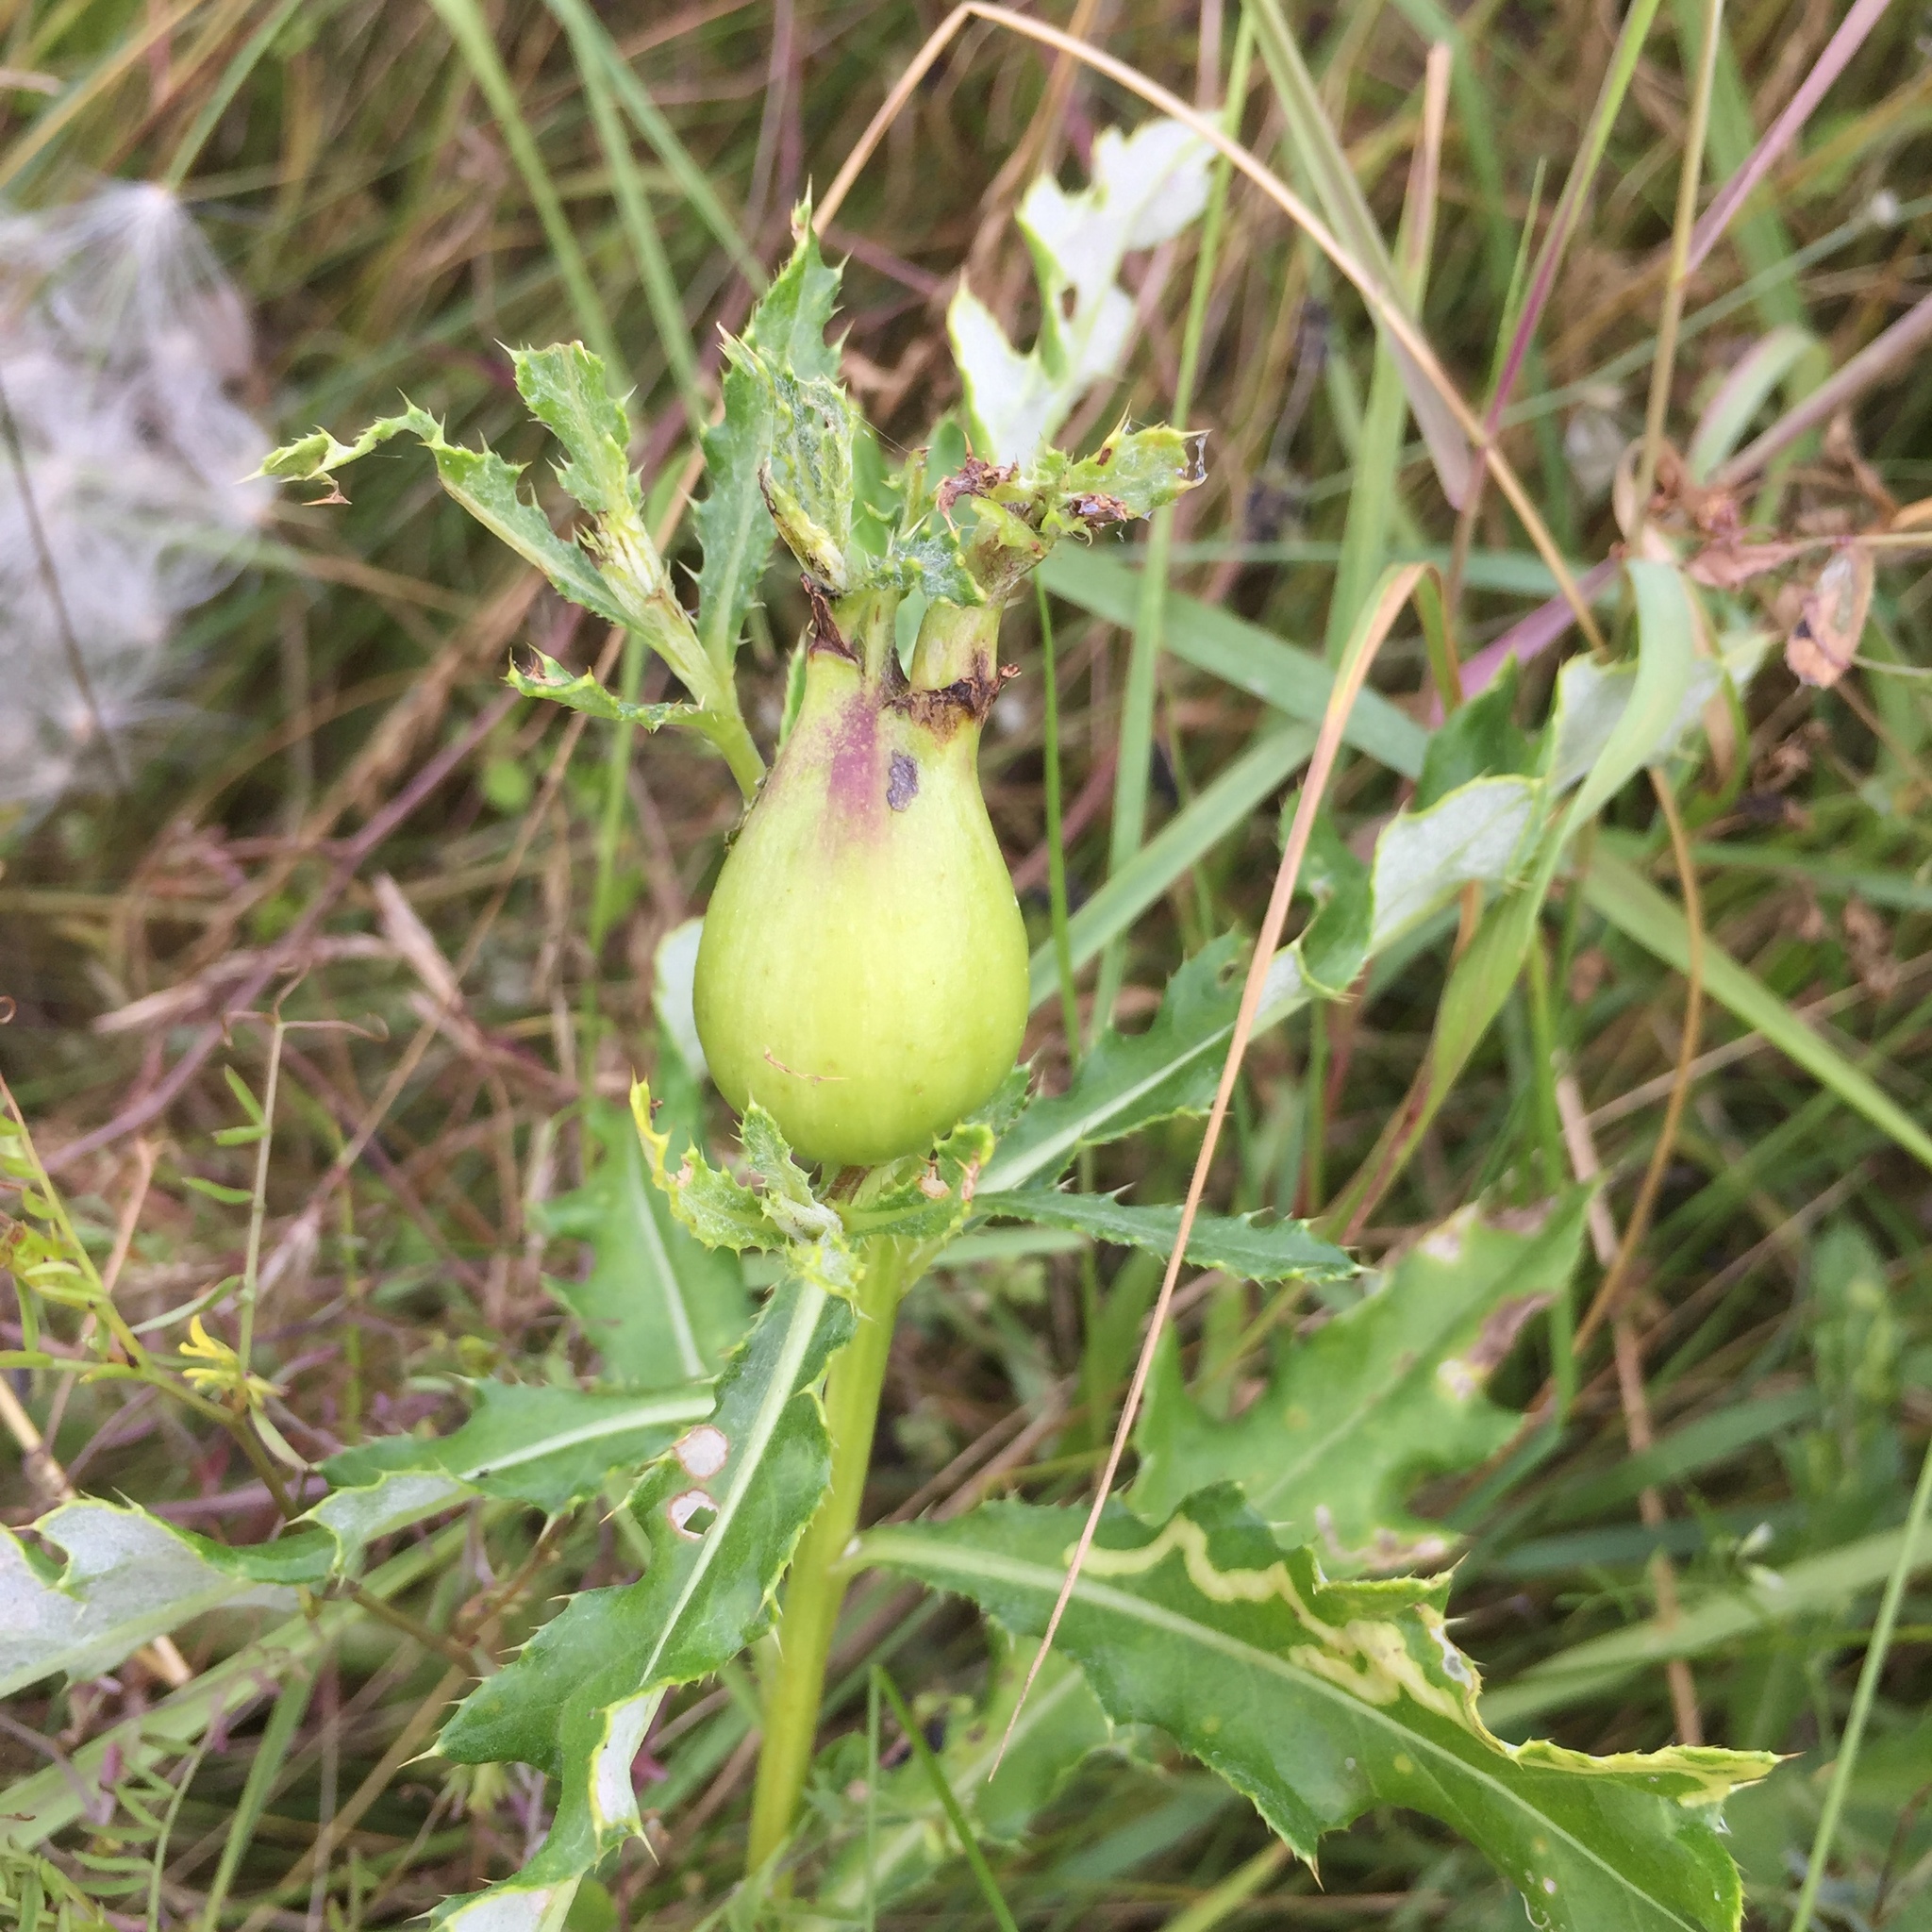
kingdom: Animalia
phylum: Arthropoda
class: Insecta
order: Diptera
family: Tephritidae
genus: Urophora
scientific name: Urophora cardui
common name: Fruit fly
